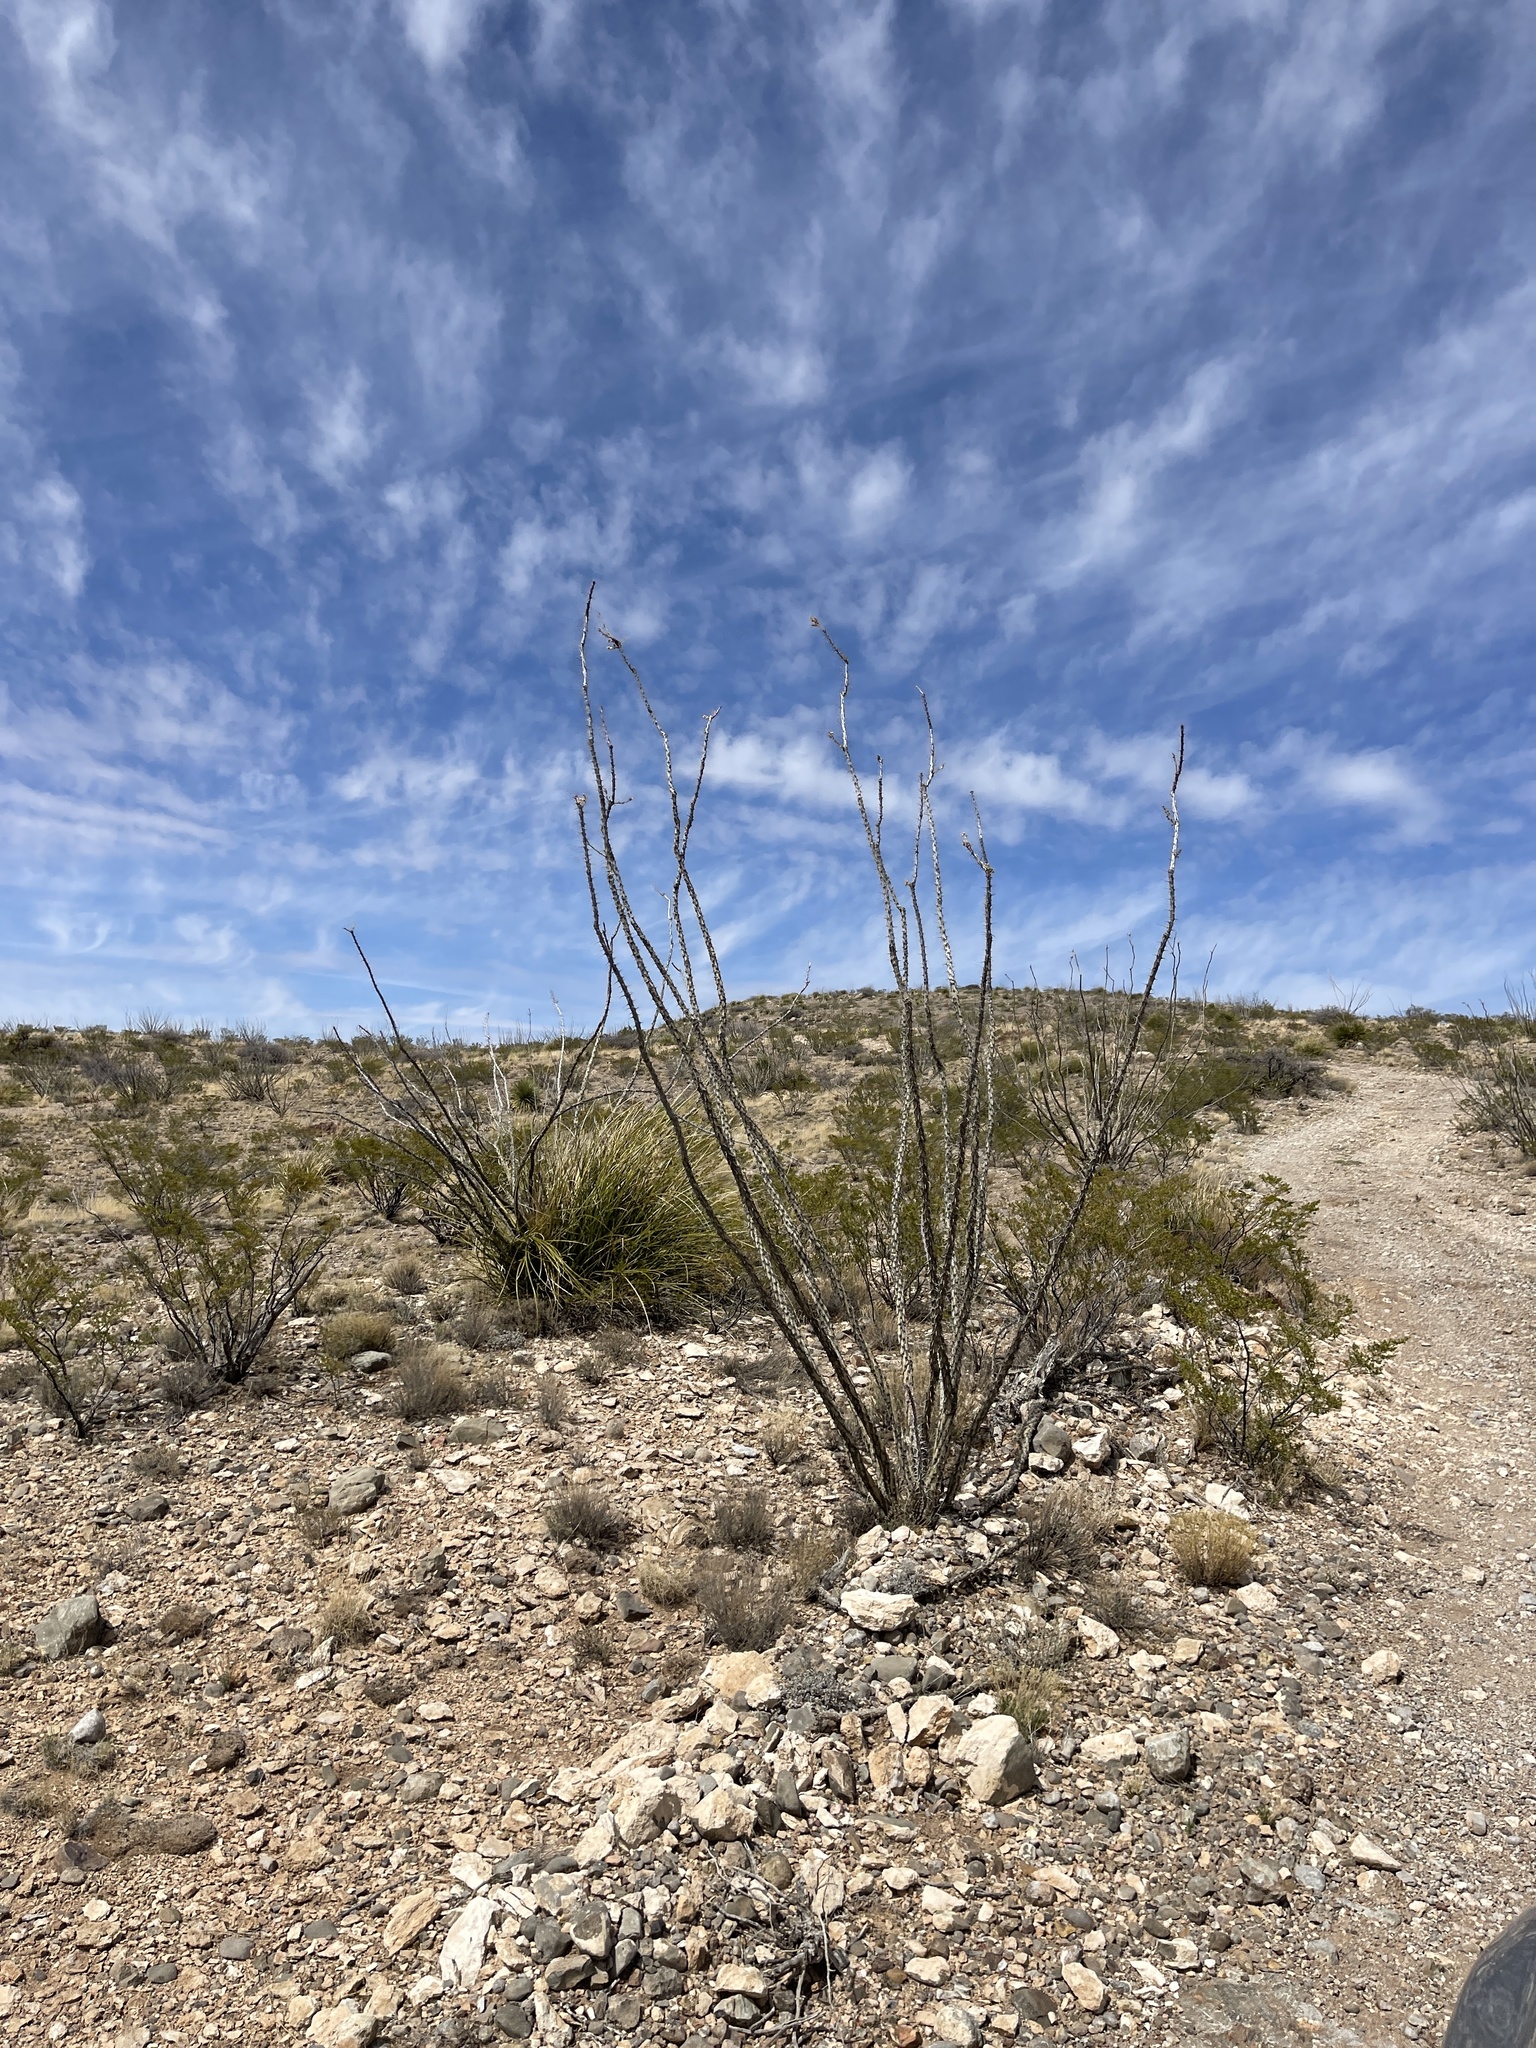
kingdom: Plantae
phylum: Tracheophyta
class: Magnoliopsida
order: Ericales
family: Fouquieriaceae
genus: Fouquieria
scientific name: Fouquieria splendens
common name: Vine-cactus
